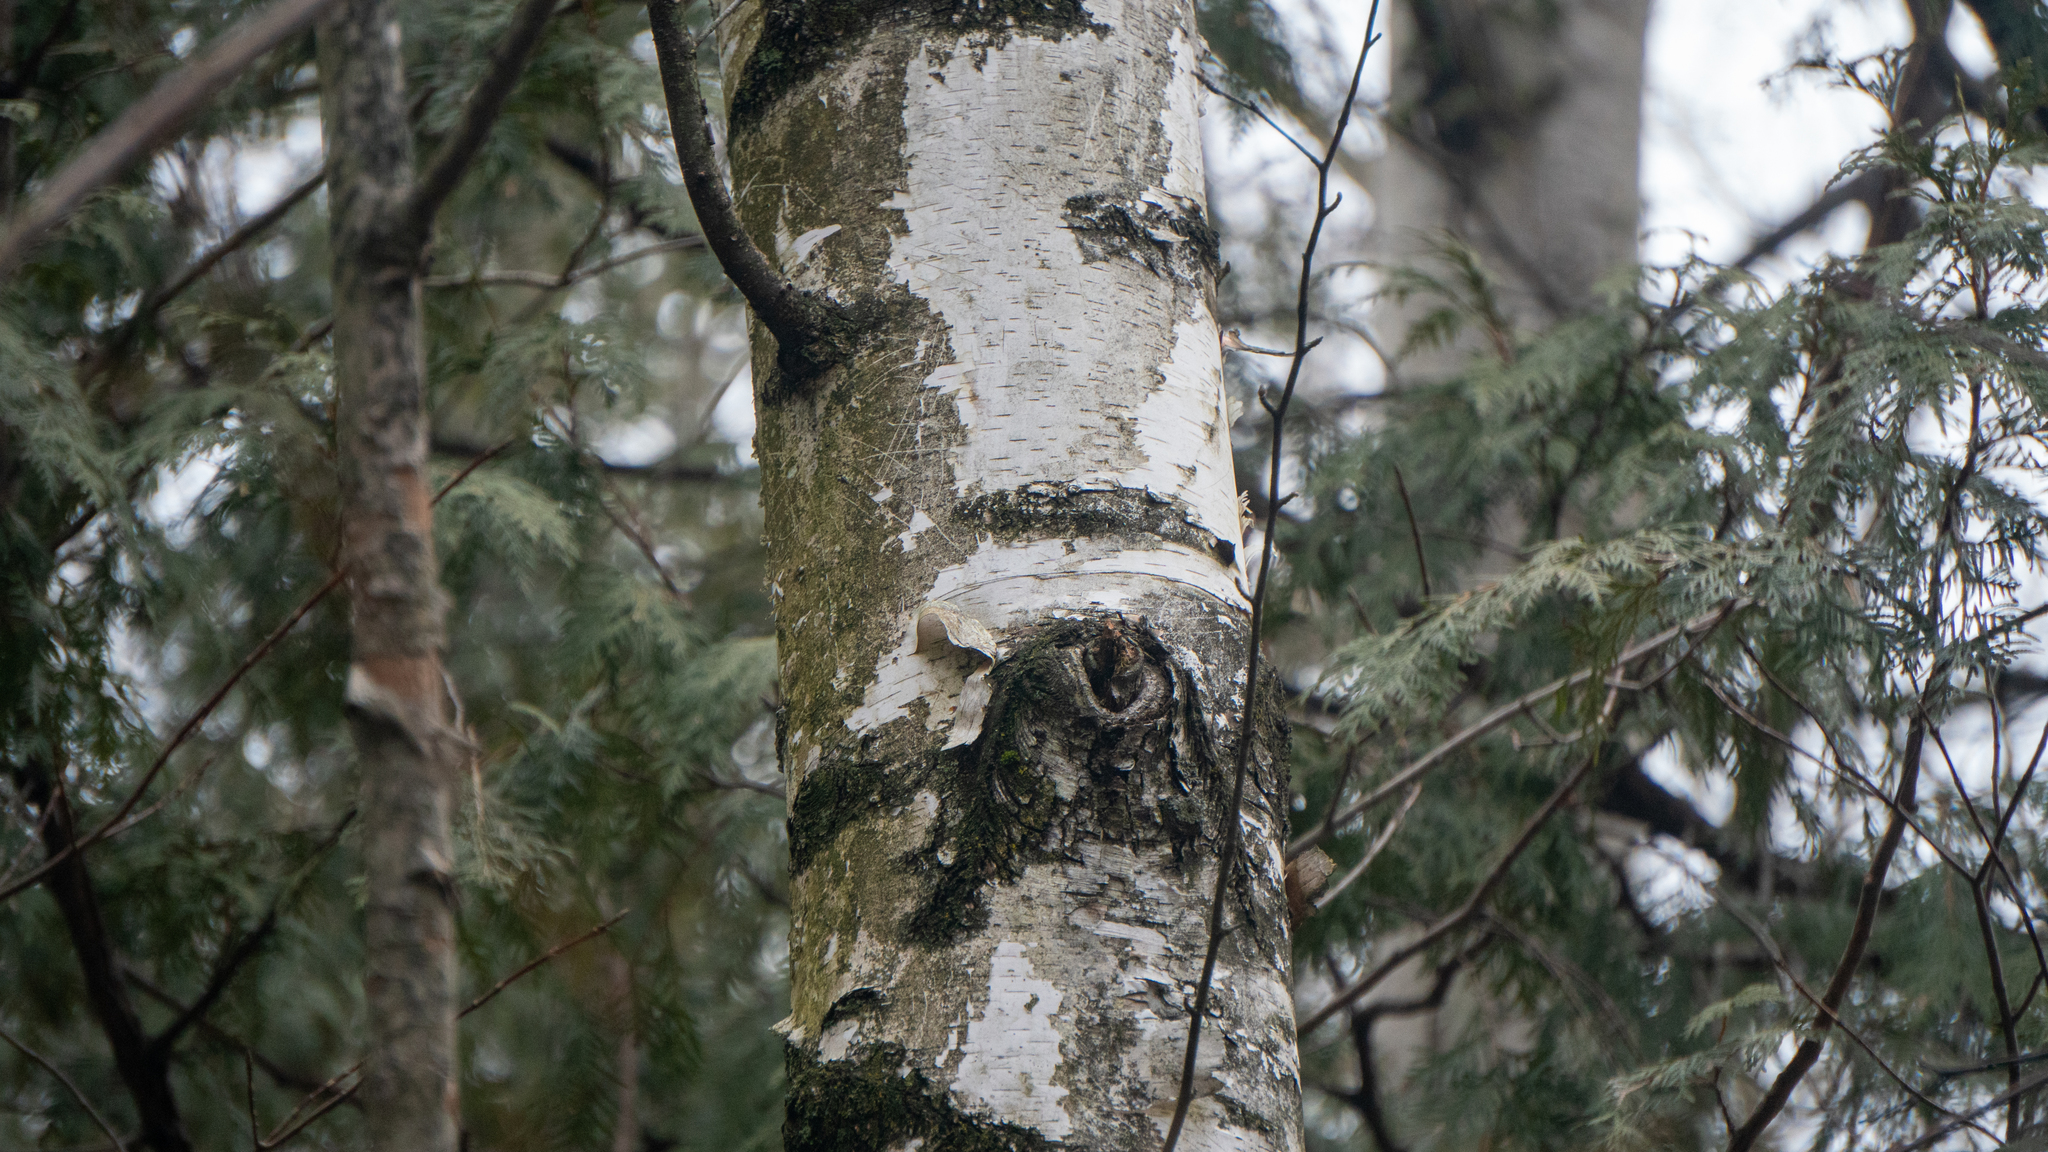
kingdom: Plantae
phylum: Tracheophyta
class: Magnoliopsida
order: Fagales
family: Betulaceae
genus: Betula
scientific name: Betula papyrifera
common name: Paper birch
